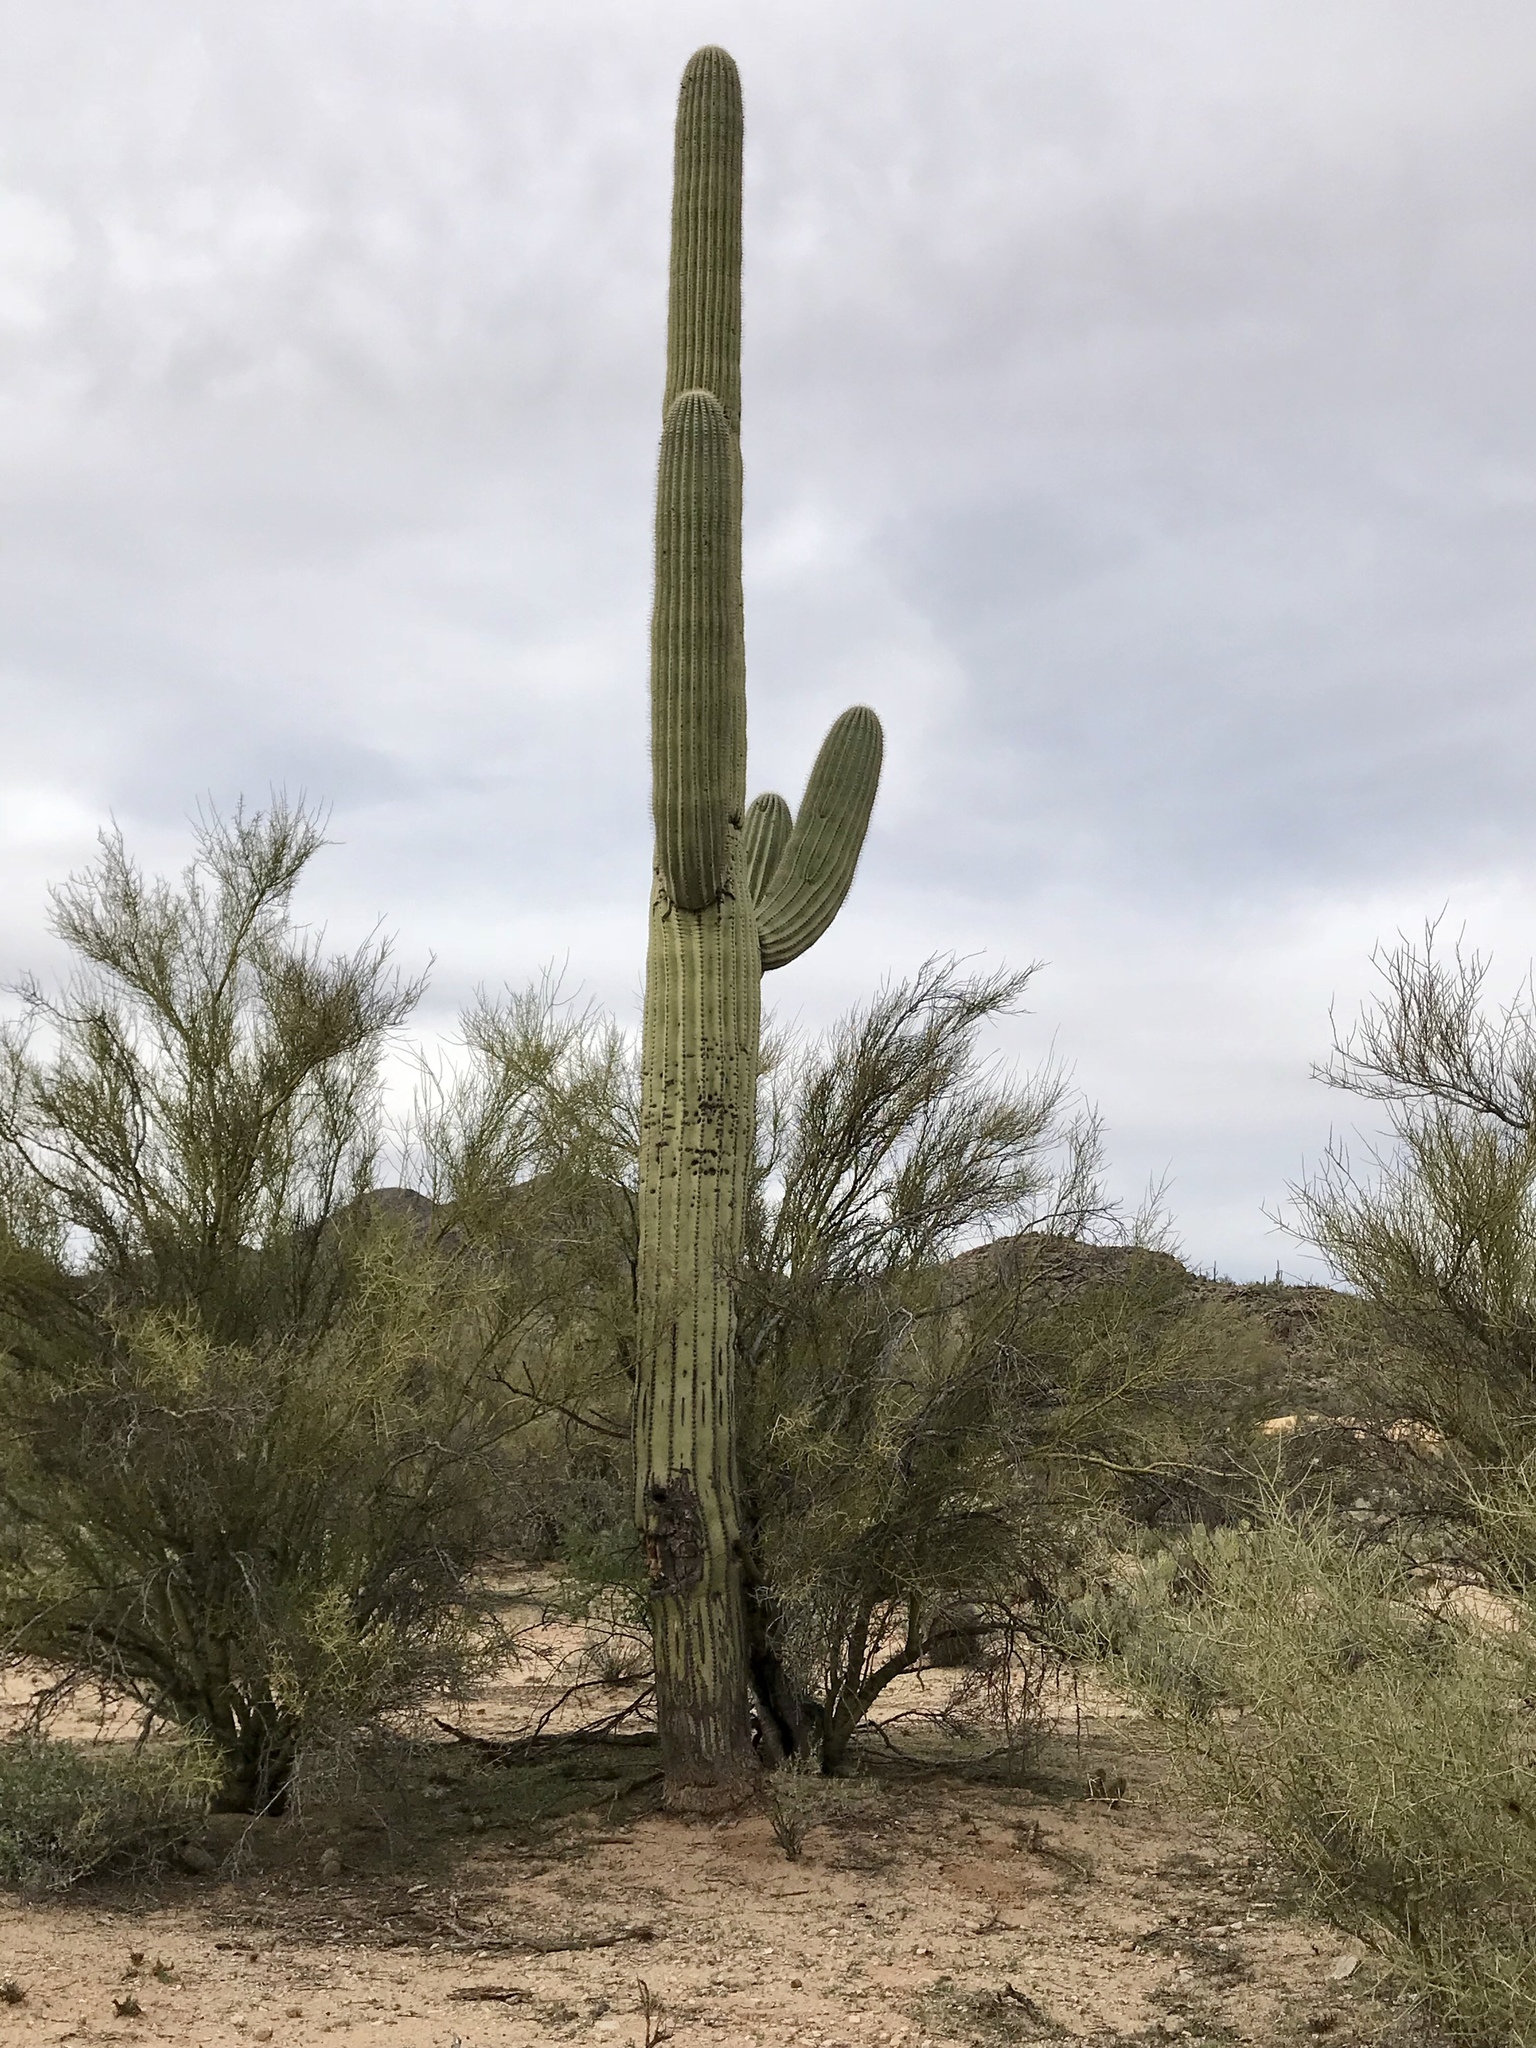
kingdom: Plantae
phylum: Tracheophyta
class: Magnoliopsida
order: Caryophyllales
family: Cactaceae
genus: Carnegiea
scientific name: Carnegiea gigantea
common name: Saguaro
